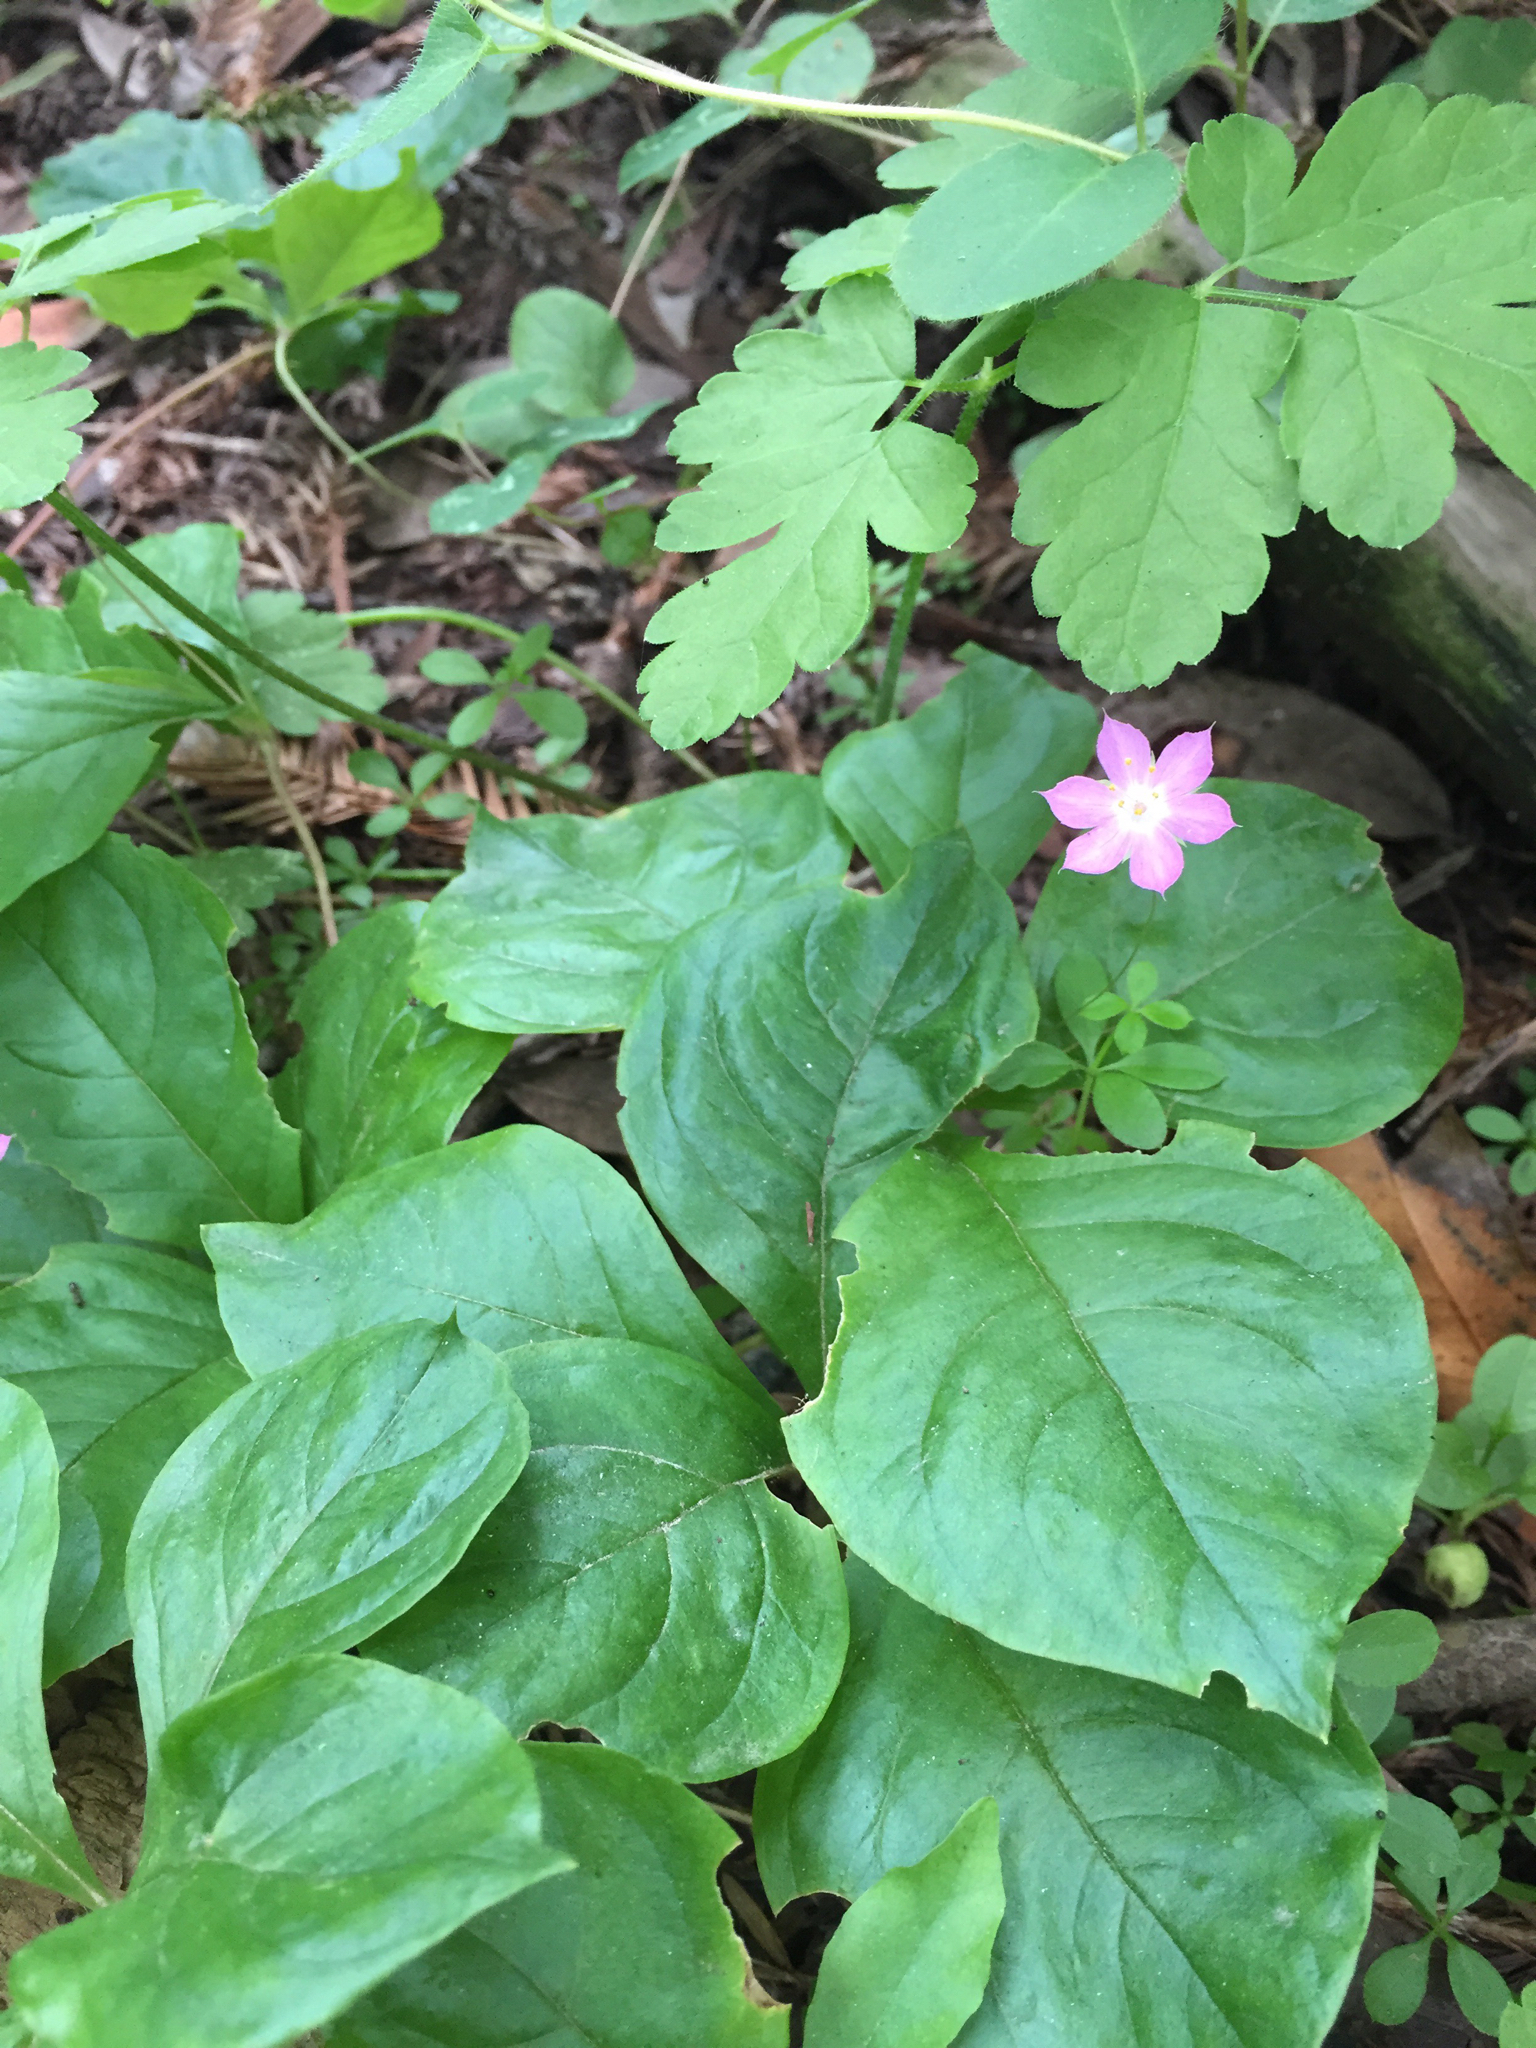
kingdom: Plantae
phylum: Tracheophyta
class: Magnoliopsida
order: Ericales
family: Primulaceae
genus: Lysimachia
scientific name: Lysimachia latifolia
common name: Pacific starflower
